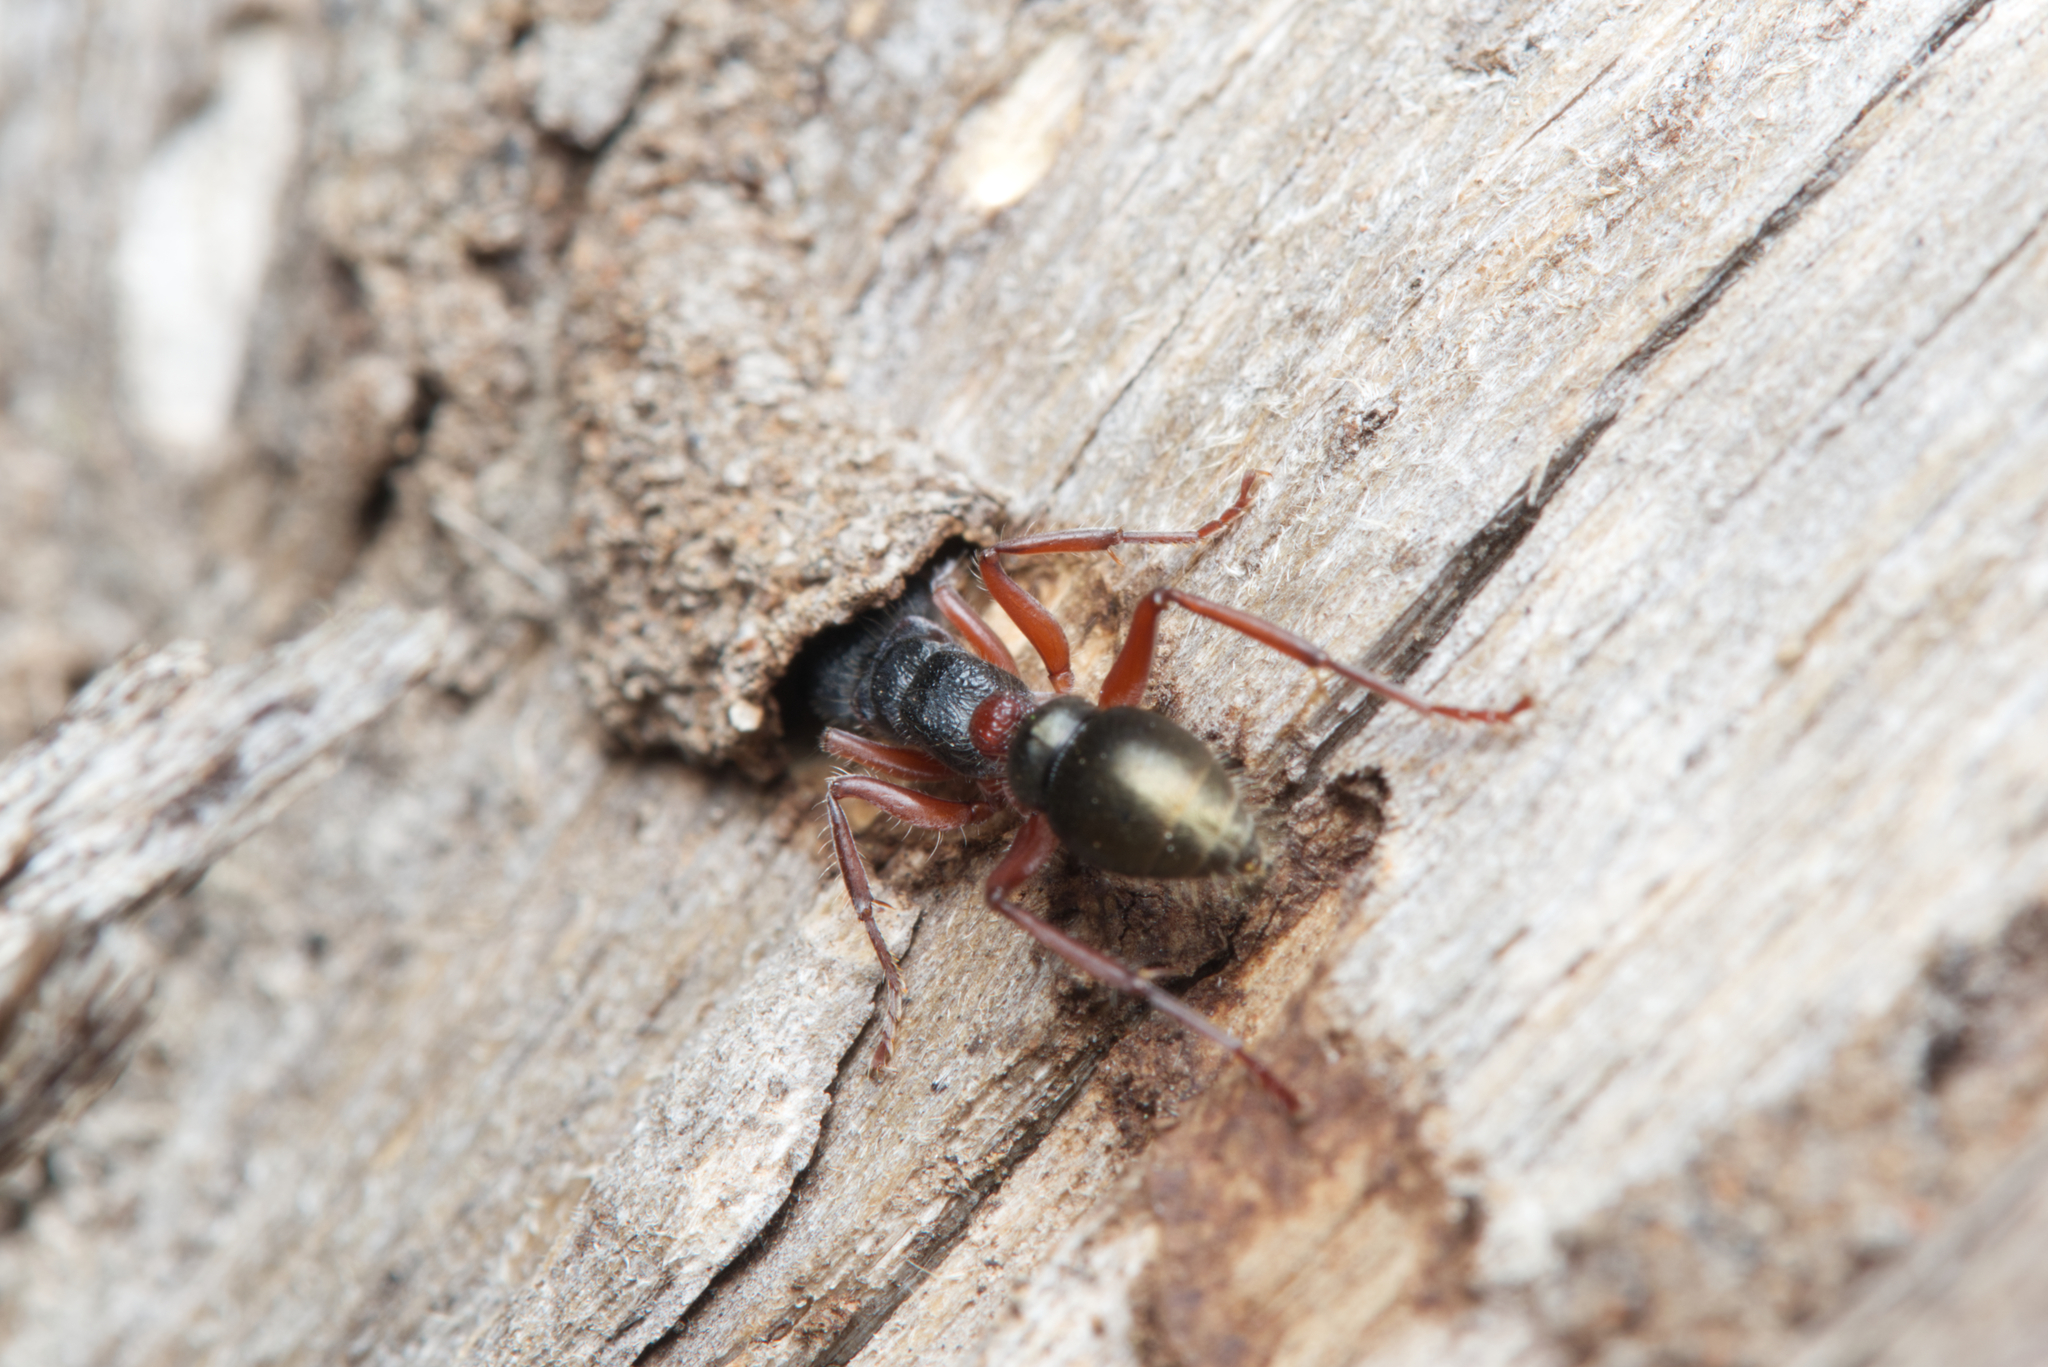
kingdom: Animalia
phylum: Arthropoda
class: Insecta
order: Hymenoptera
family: Formicidae
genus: Myrmecia
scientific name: Myrmecia chrysogaster
